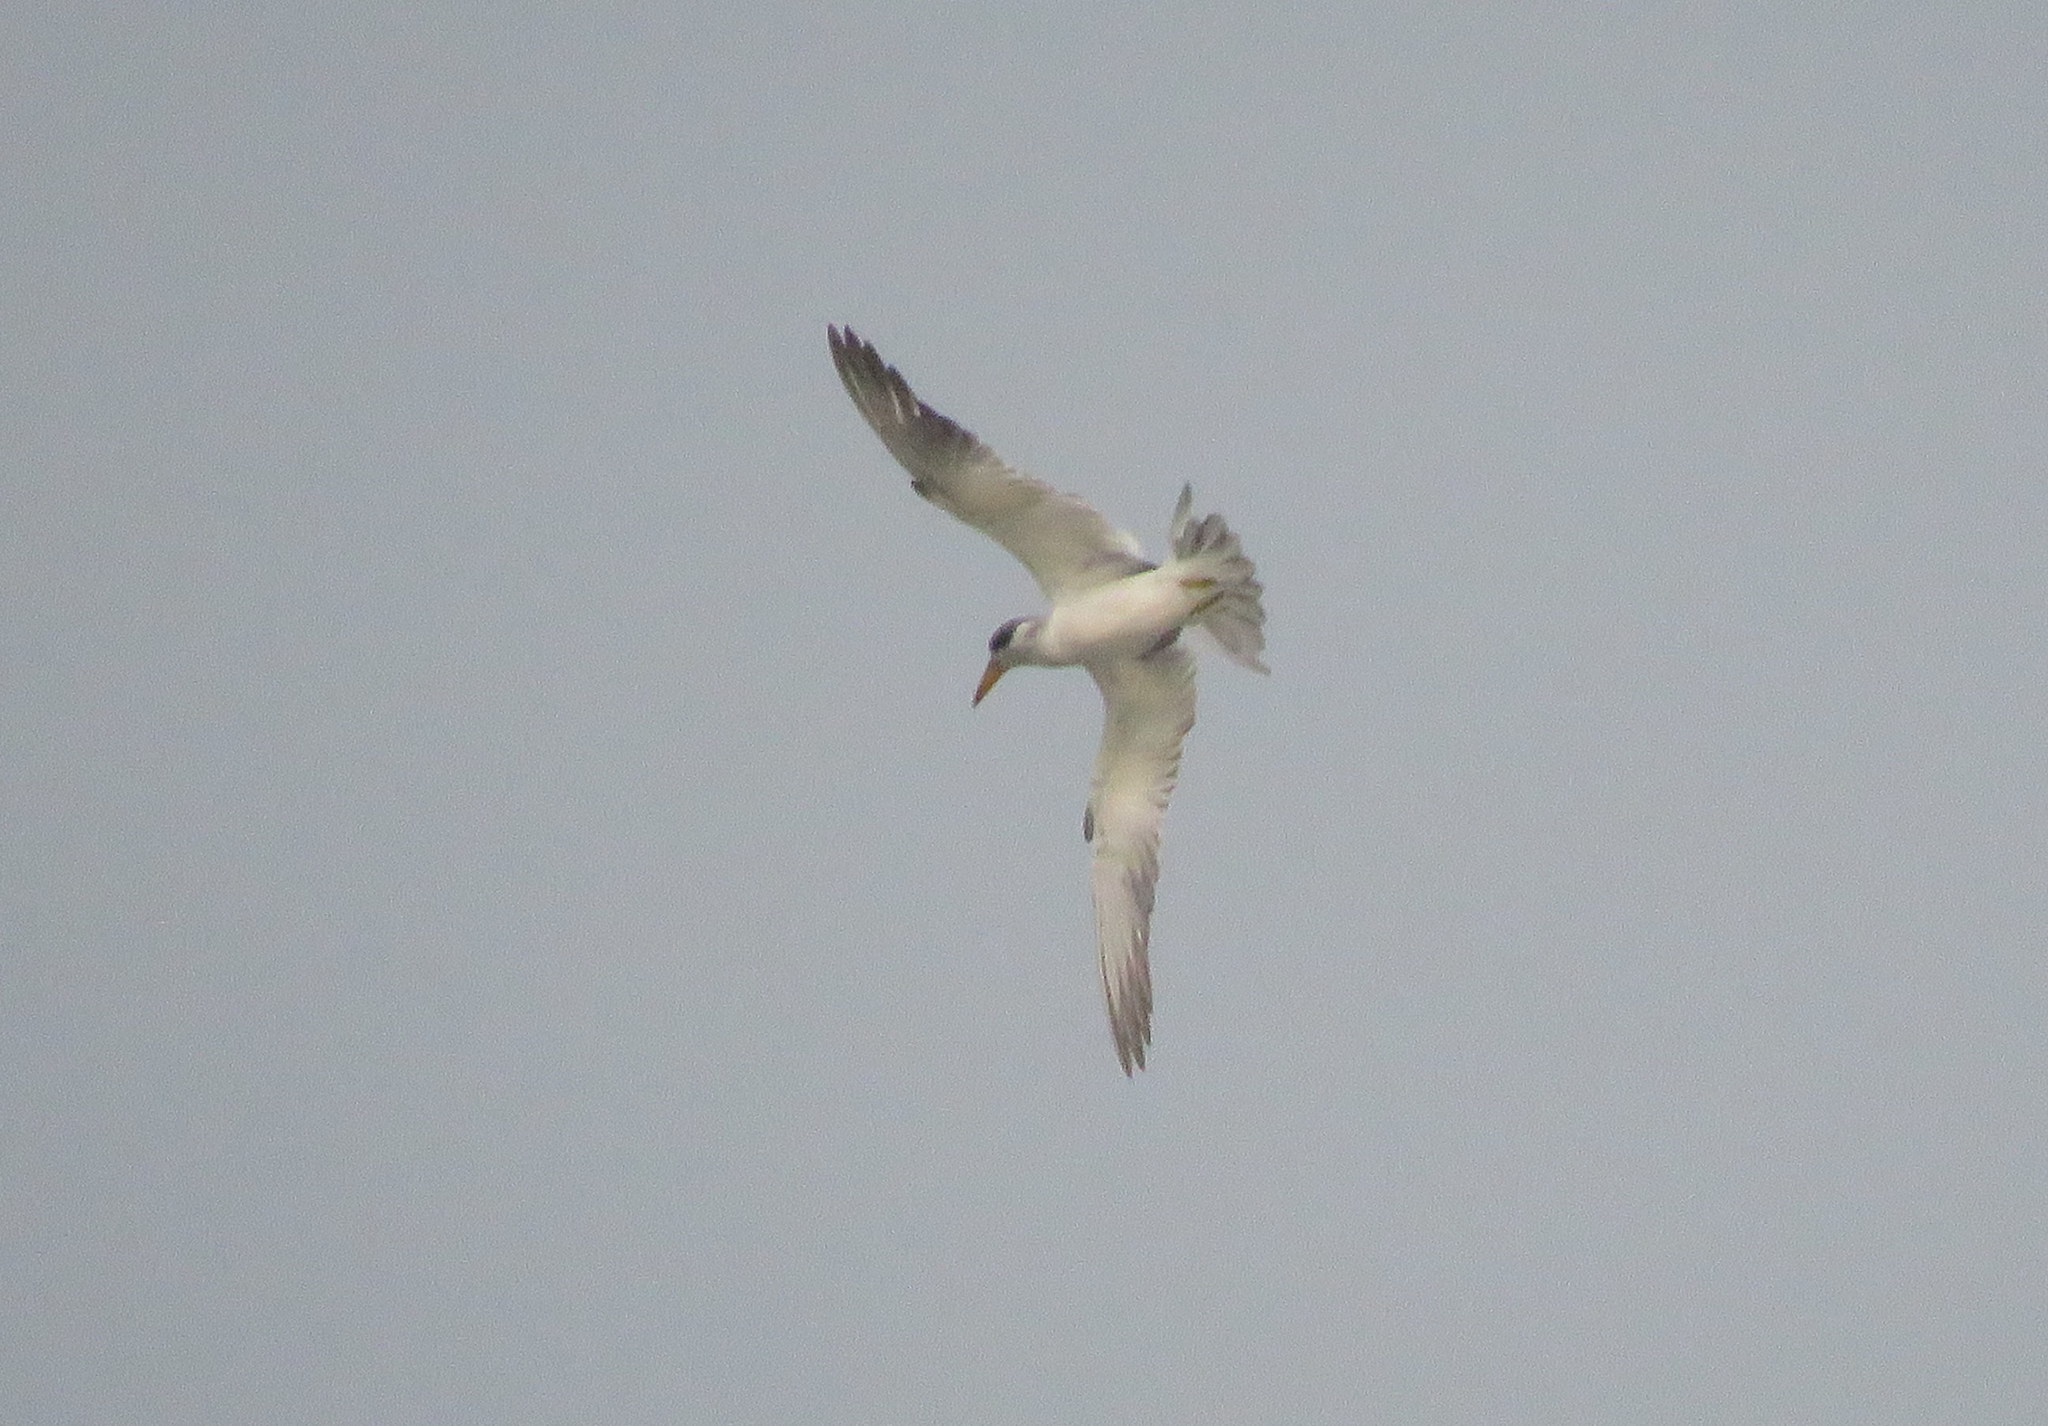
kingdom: Animalia
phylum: Chordata
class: Aves
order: Charadriiformes
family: Laridae
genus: Phaetusa
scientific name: Phaetusa simplex
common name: Large-billed tern
